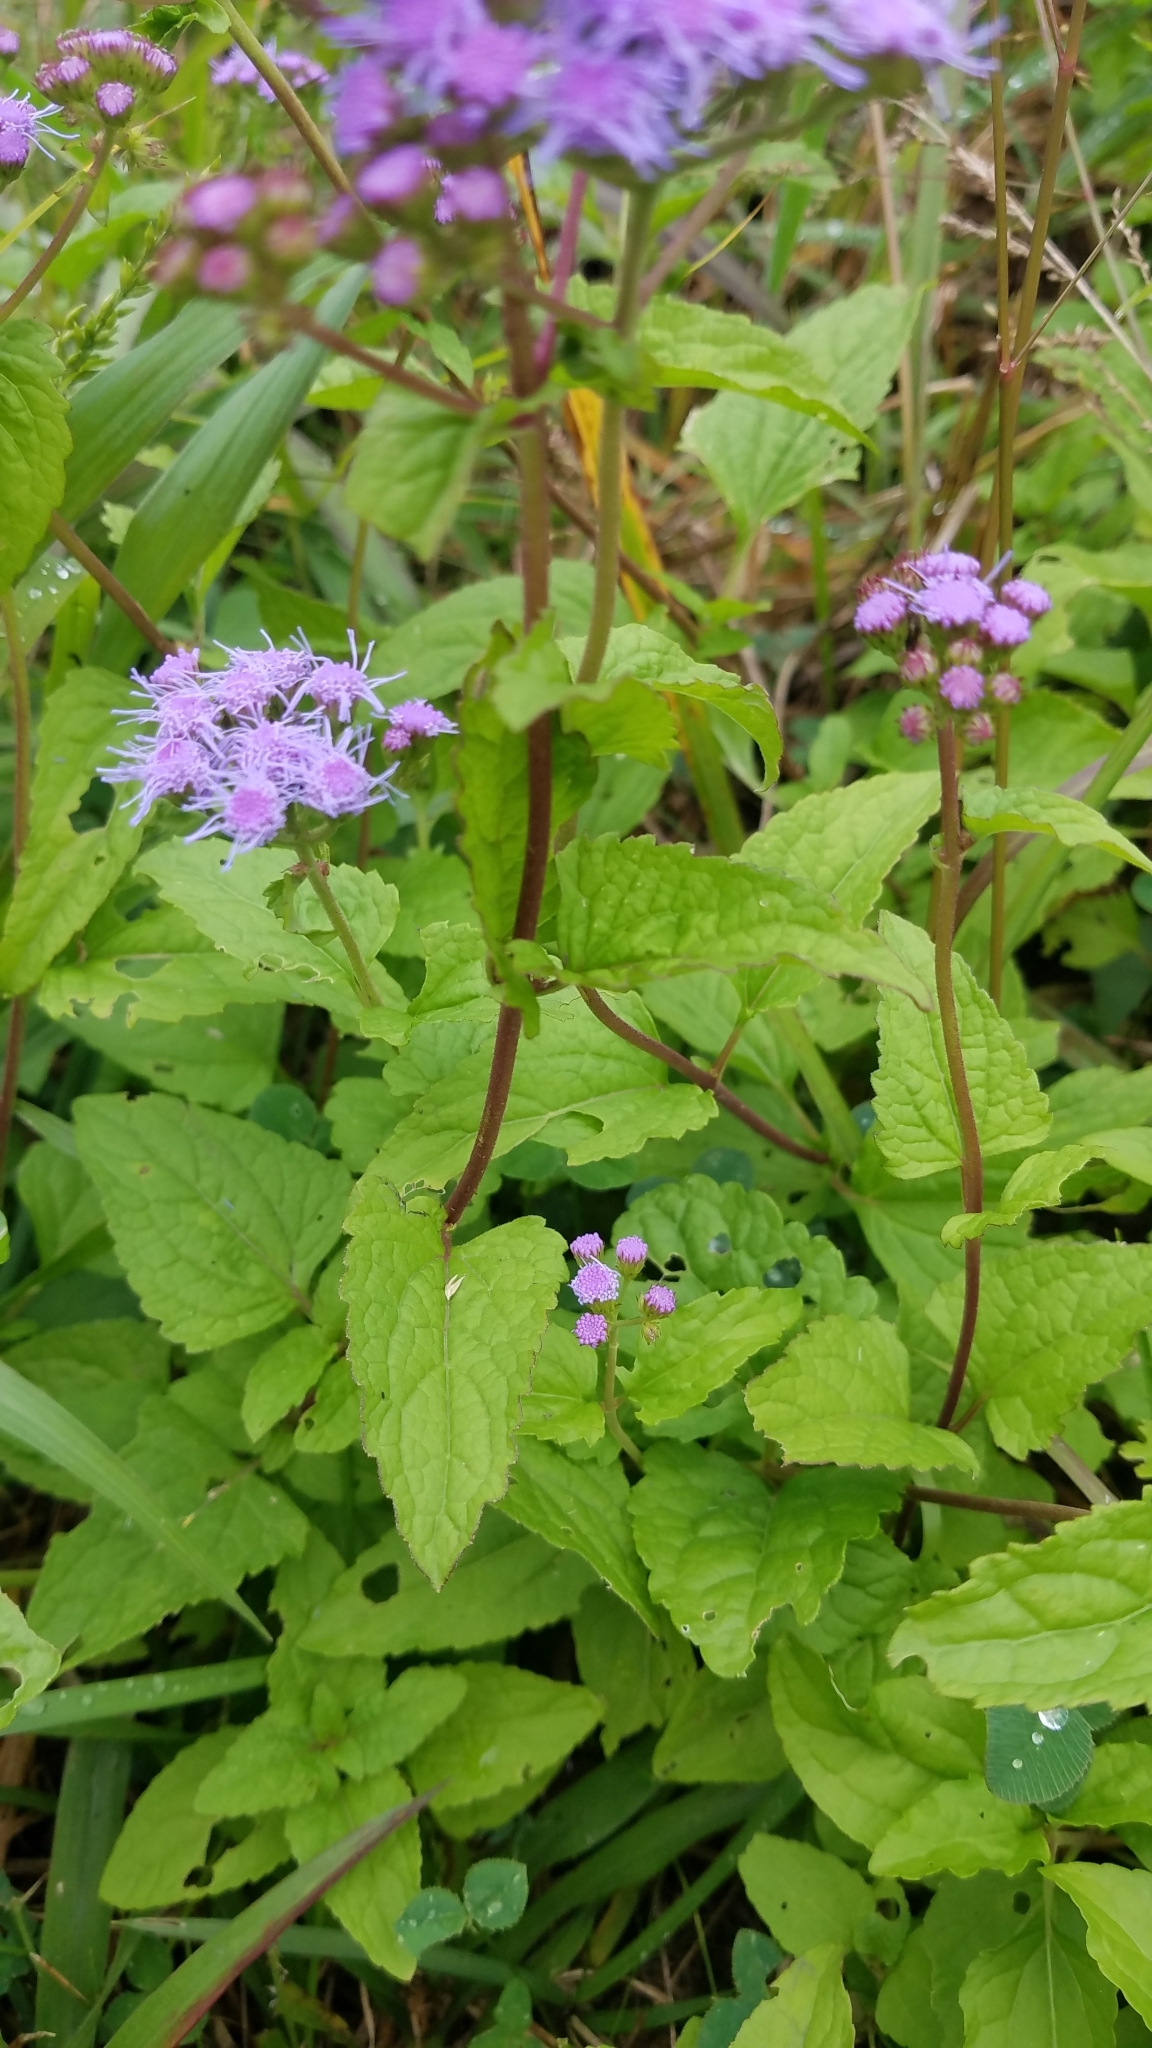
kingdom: Plantae
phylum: Tracheophyta
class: Magnoliopsida
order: Asterales
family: Asteraceae
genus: Conoclinium
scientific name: Conoclinium coelestinum
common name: Blue mistflower
